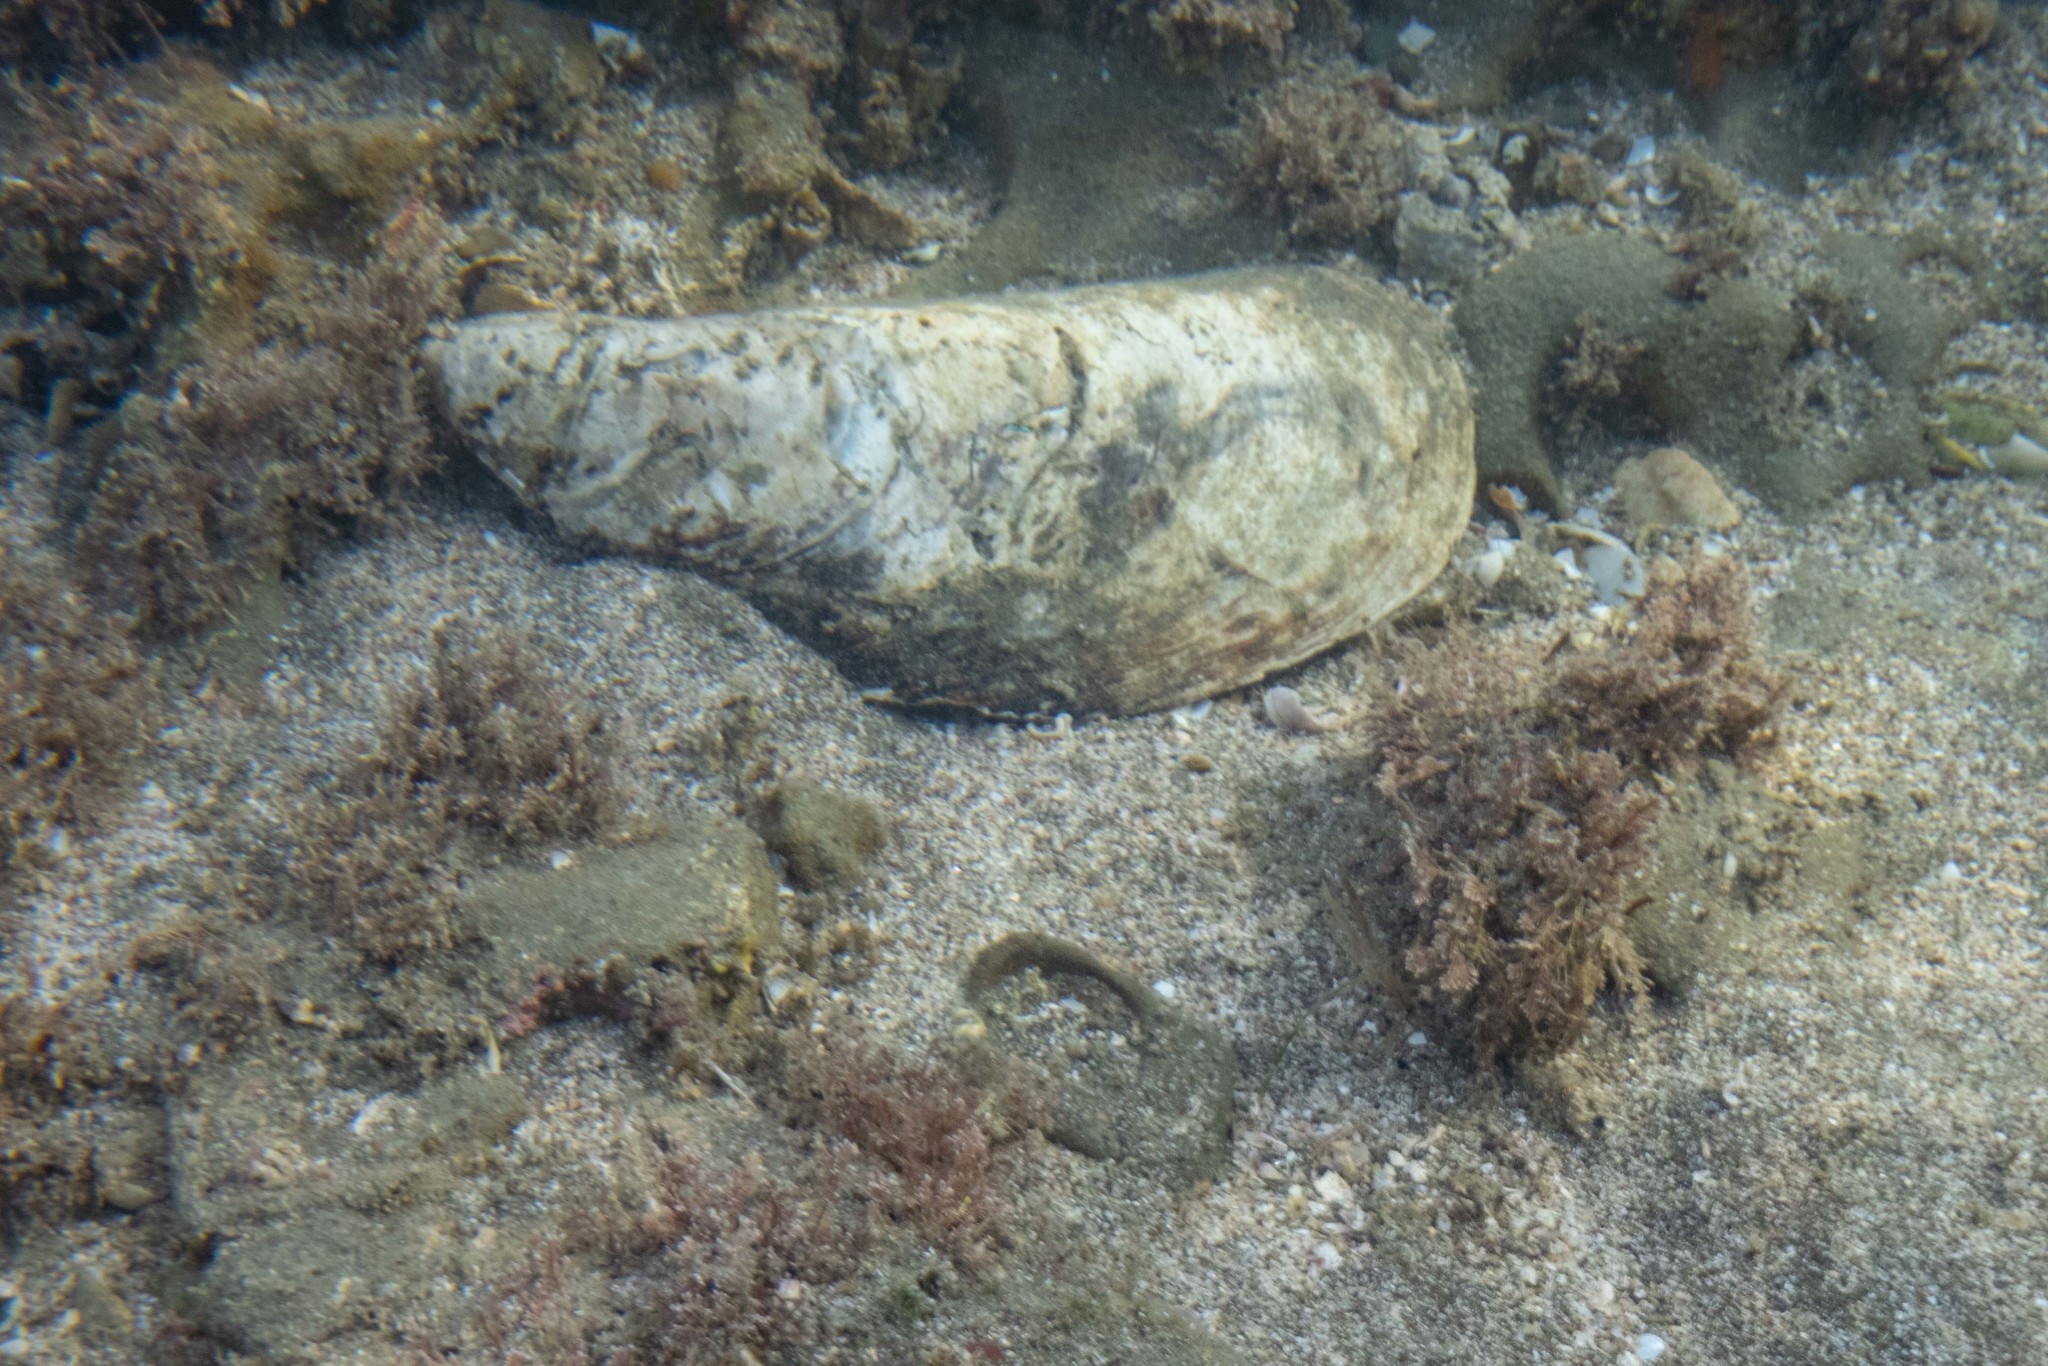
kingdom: Animalia
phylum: Mollusca
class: Bivalvia
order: Mytilida
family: Mytilidae
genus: Perna
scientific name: Perna canaliculus
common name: New zealand greenshelltm
